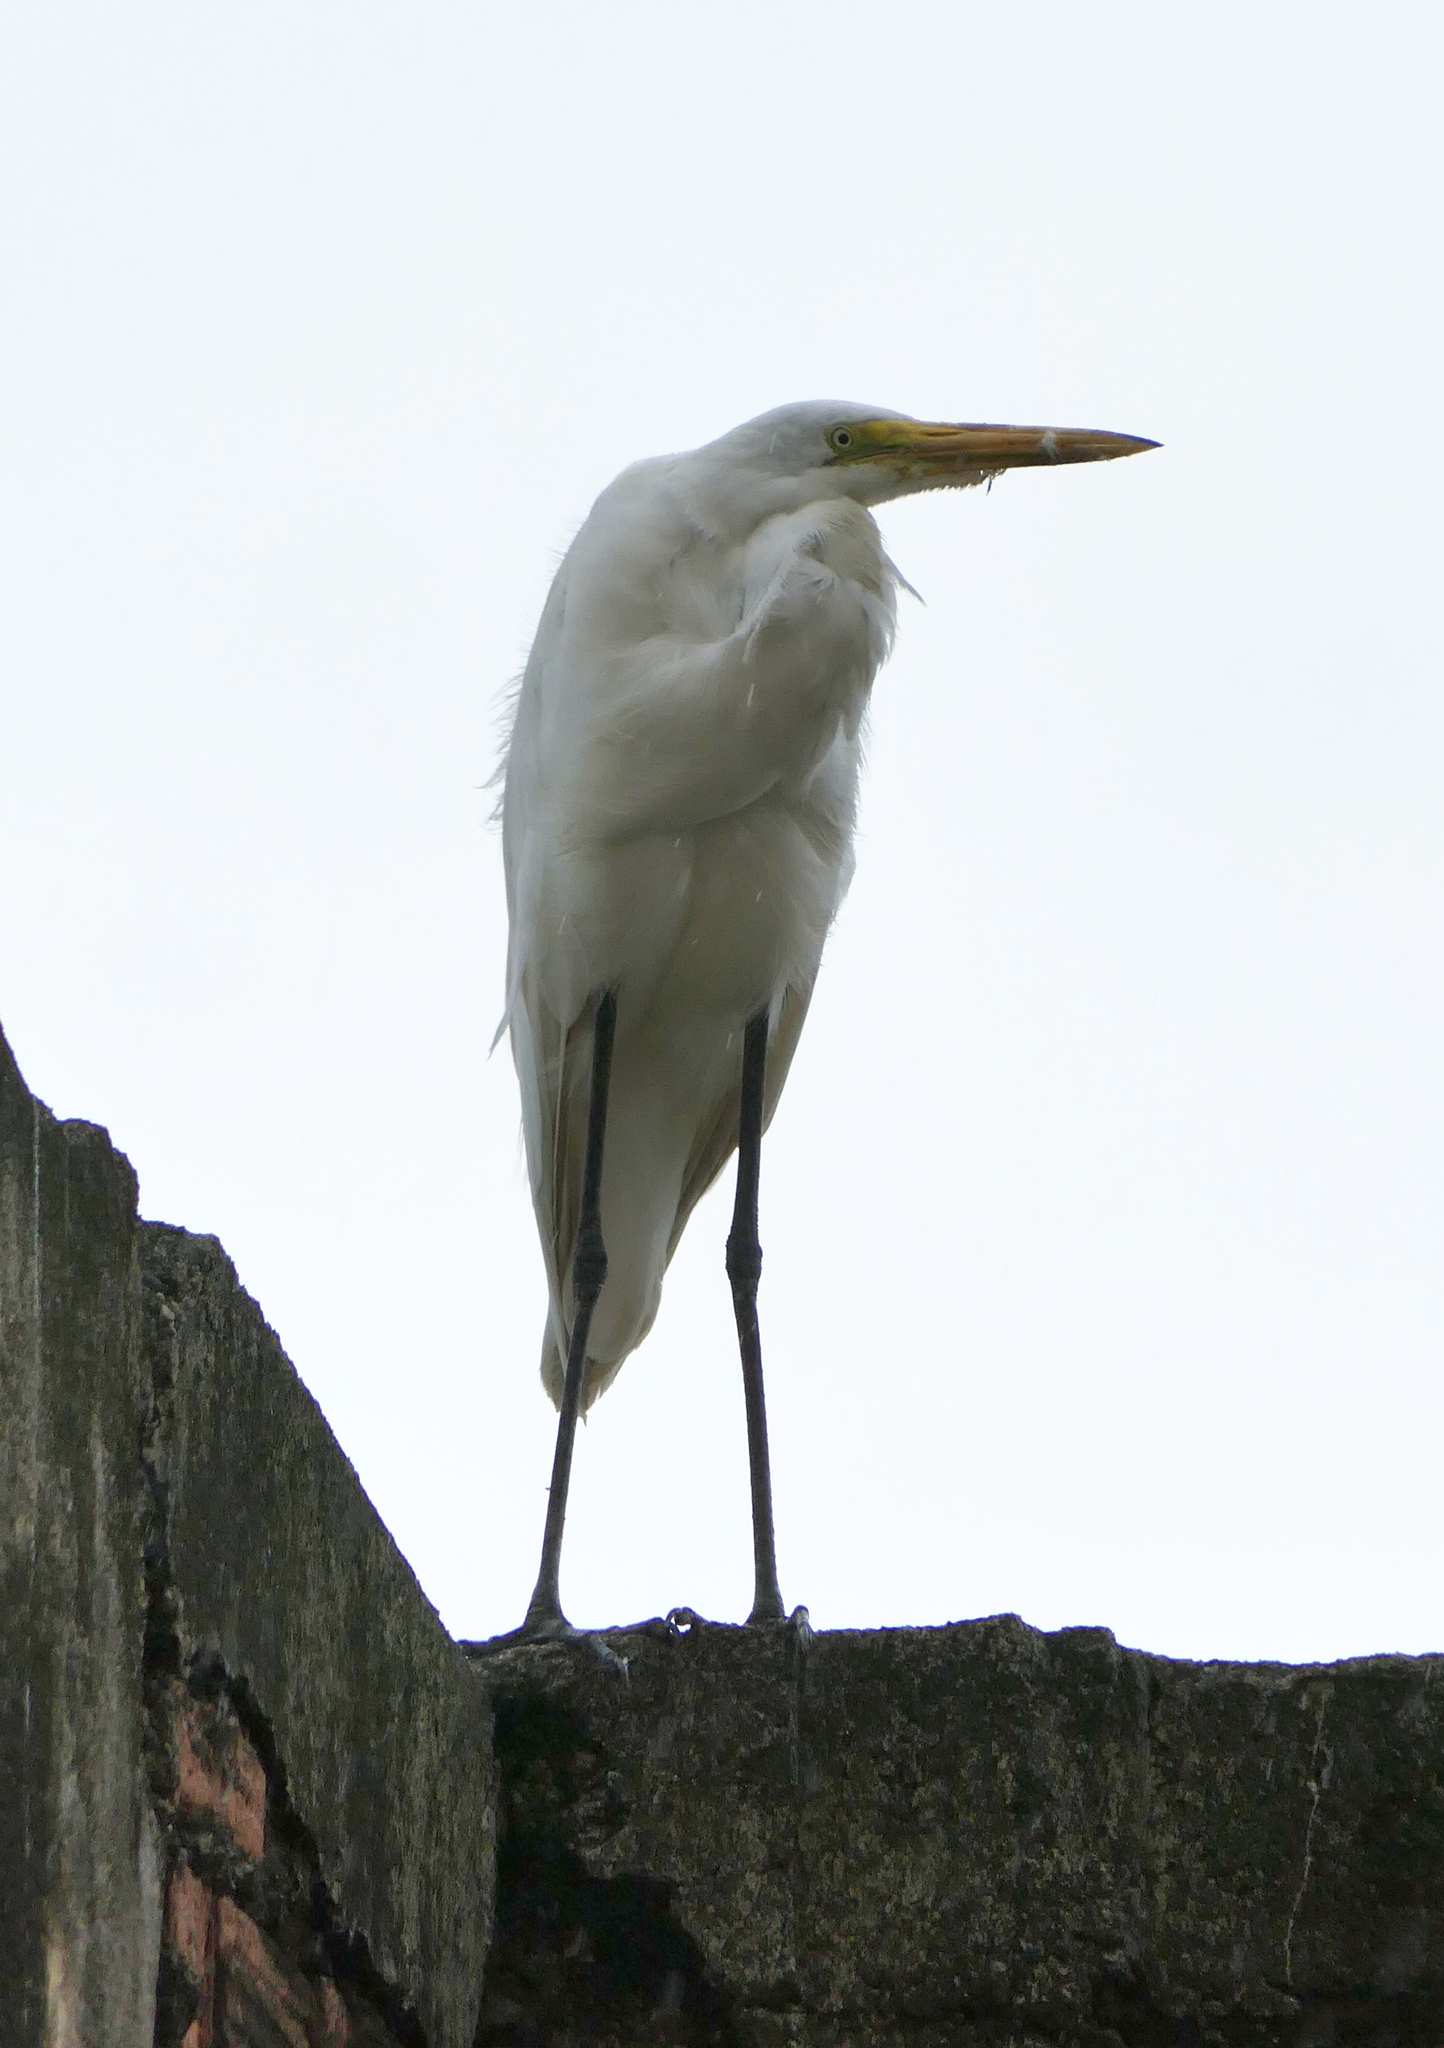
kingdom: Animalia
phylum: Chordata
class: Aves
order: Pelecaniformes
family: Ardeidae
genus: Ardea
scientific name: Ardea alba
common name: Great egret
